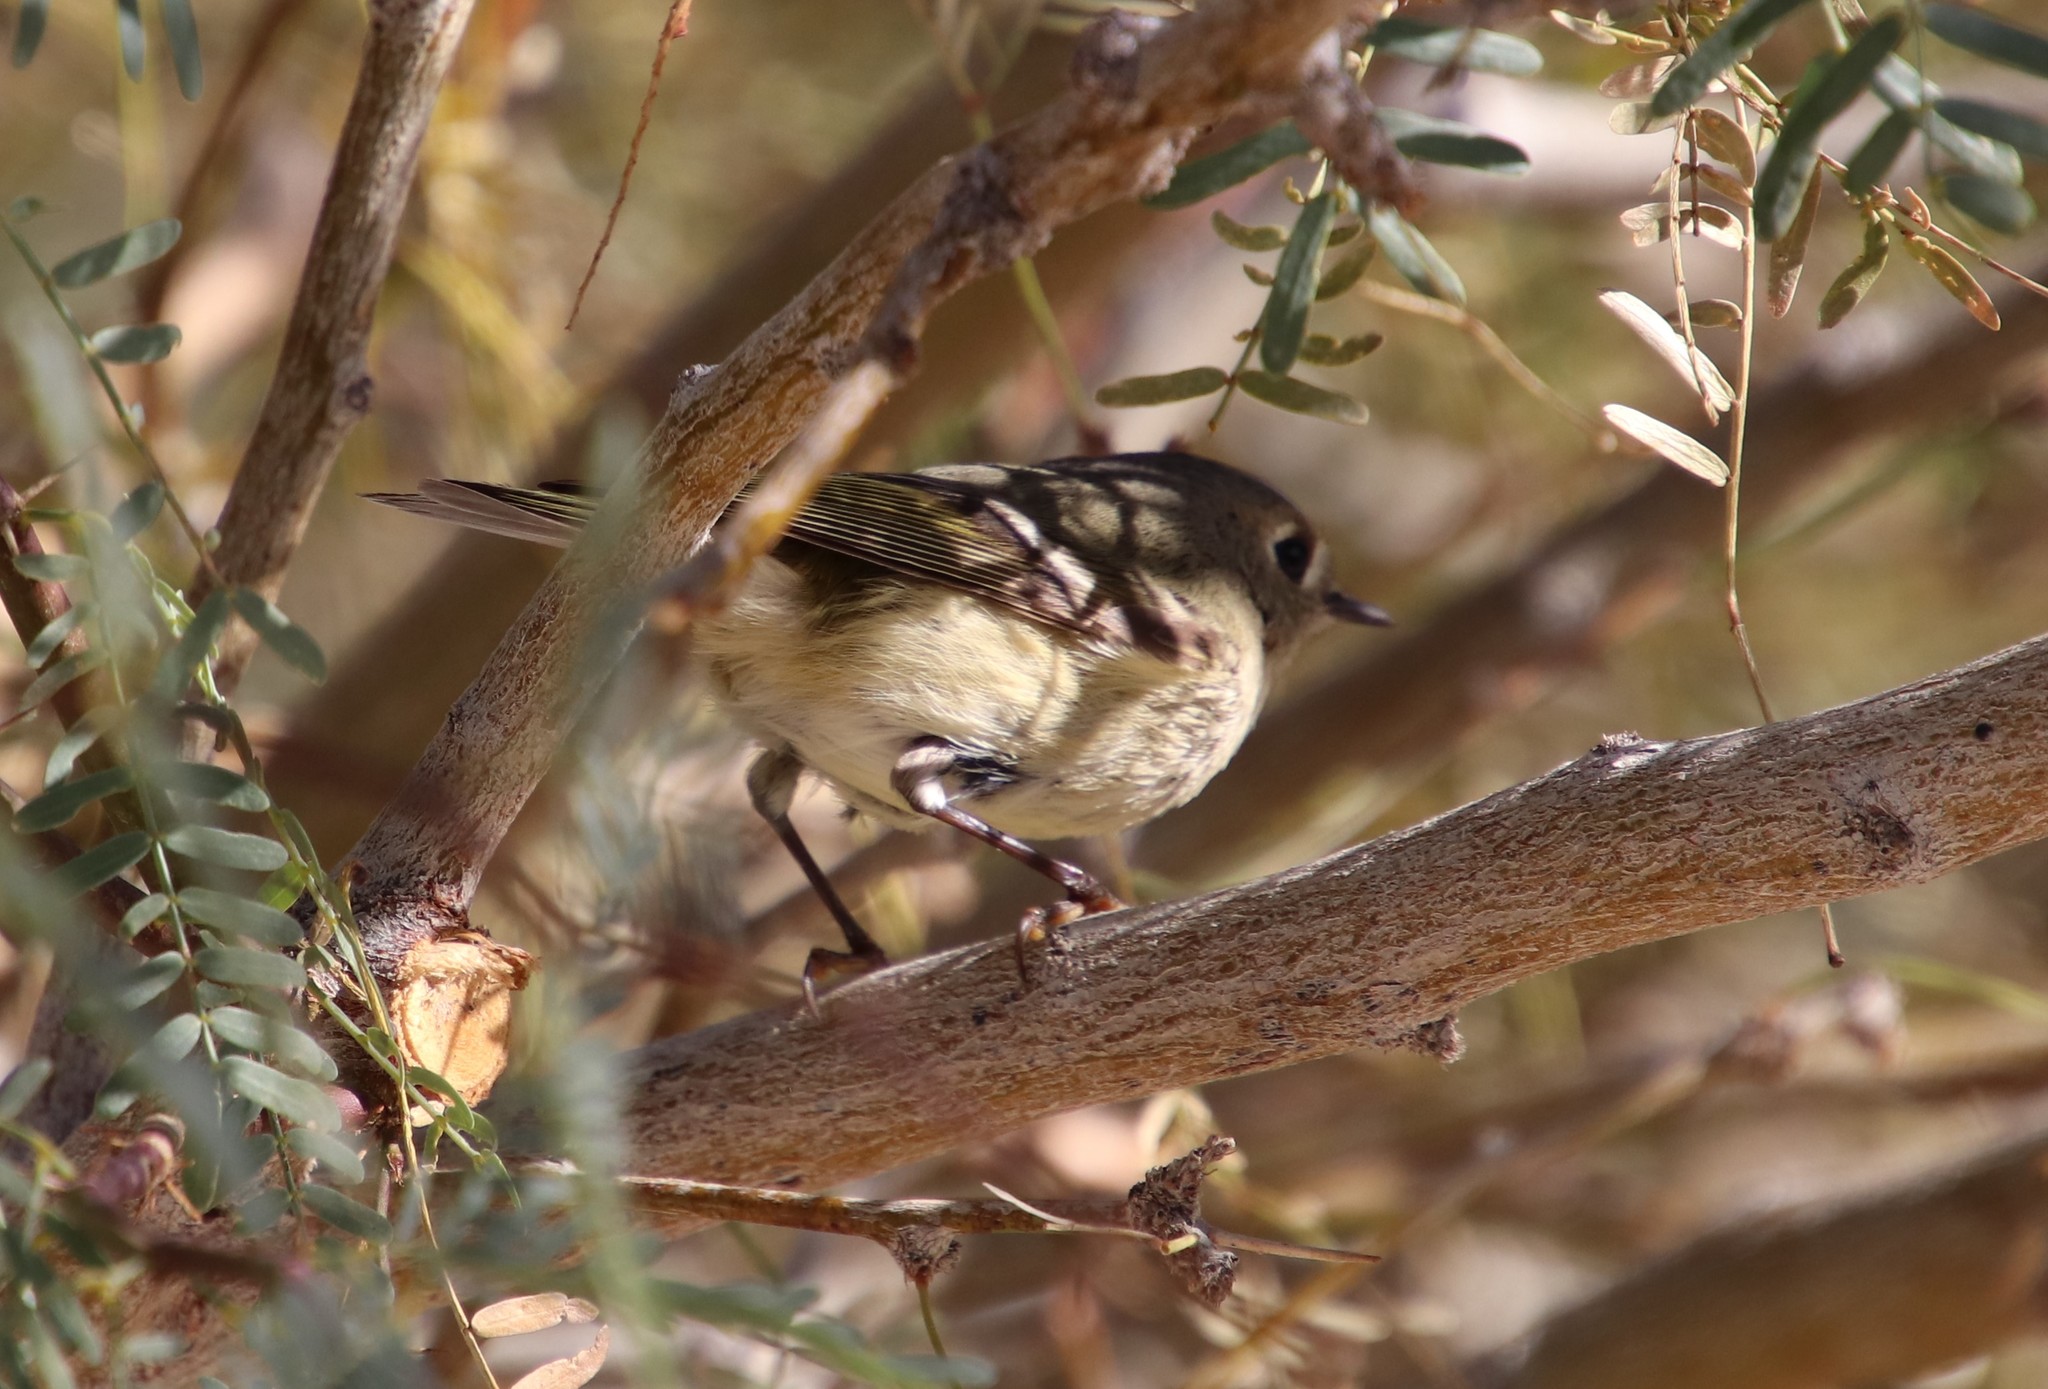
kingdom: Animalia
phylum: Chordata
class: Aves
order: Passeriformes
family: Regulidae
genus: Regulus
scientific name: Regulus calendula
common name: Ruby-crowned kinglet
